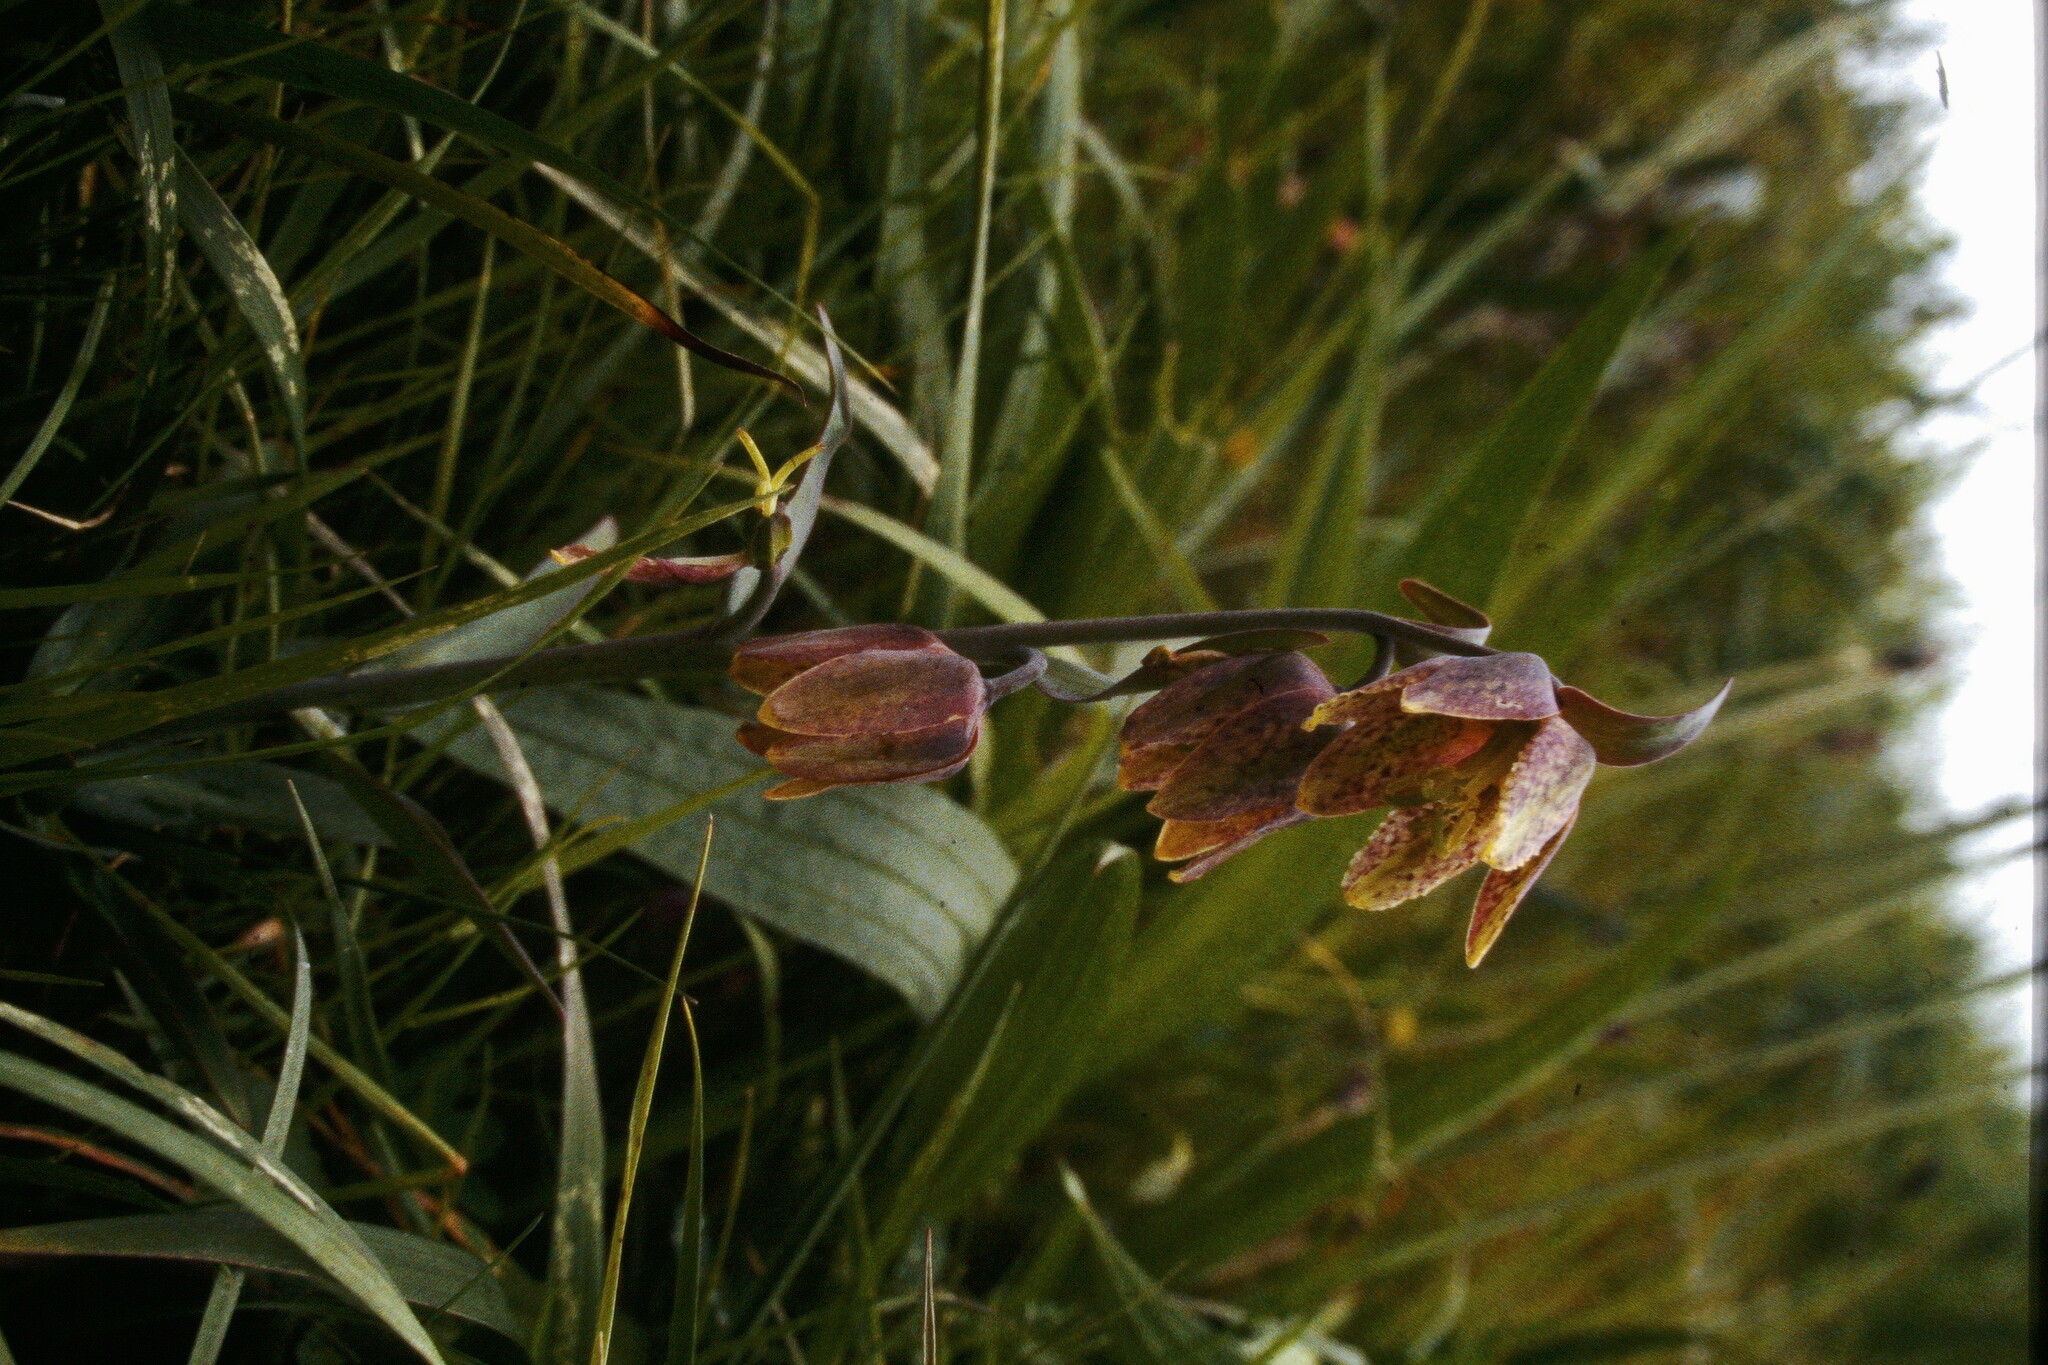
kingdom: Plantae
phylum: Tracheophyta
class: Liliopsida
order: Liliales
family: Liliaceae
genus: Fritillaria
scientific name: Fritillaria affinis
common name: Ojai fritillary
